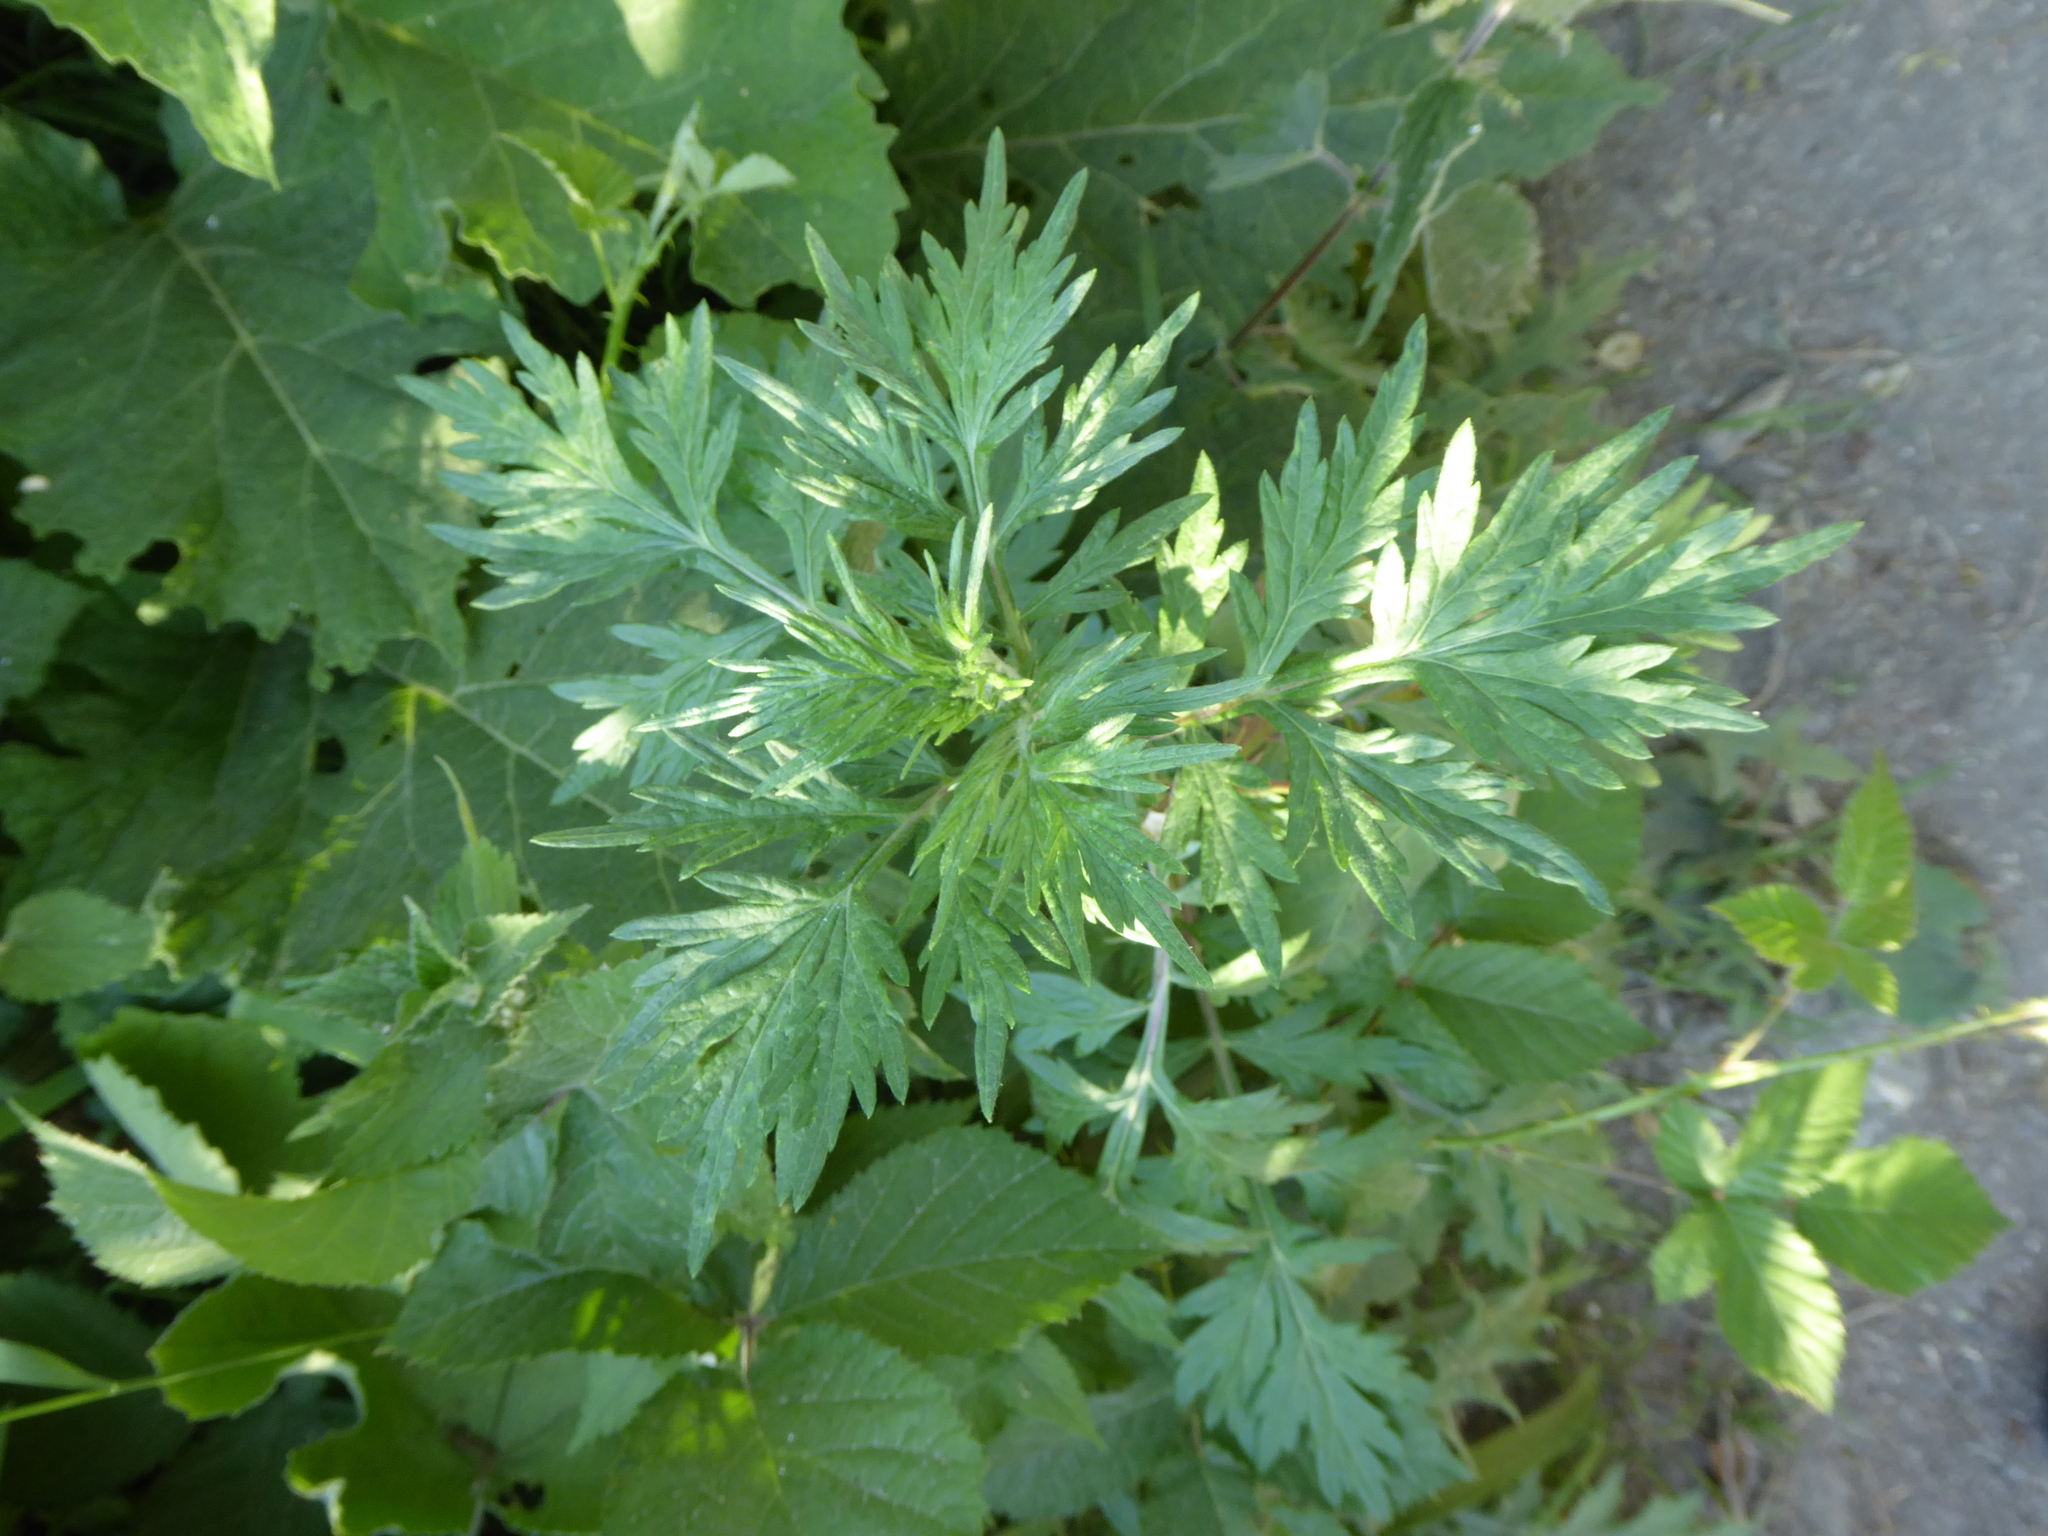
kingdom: Plantae
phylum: Tracheophyta
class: Magnoliopsida
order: Asterales
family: Asteraceae
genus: Artemisia
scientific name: Artemisia vulgaris
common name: Mugwort
